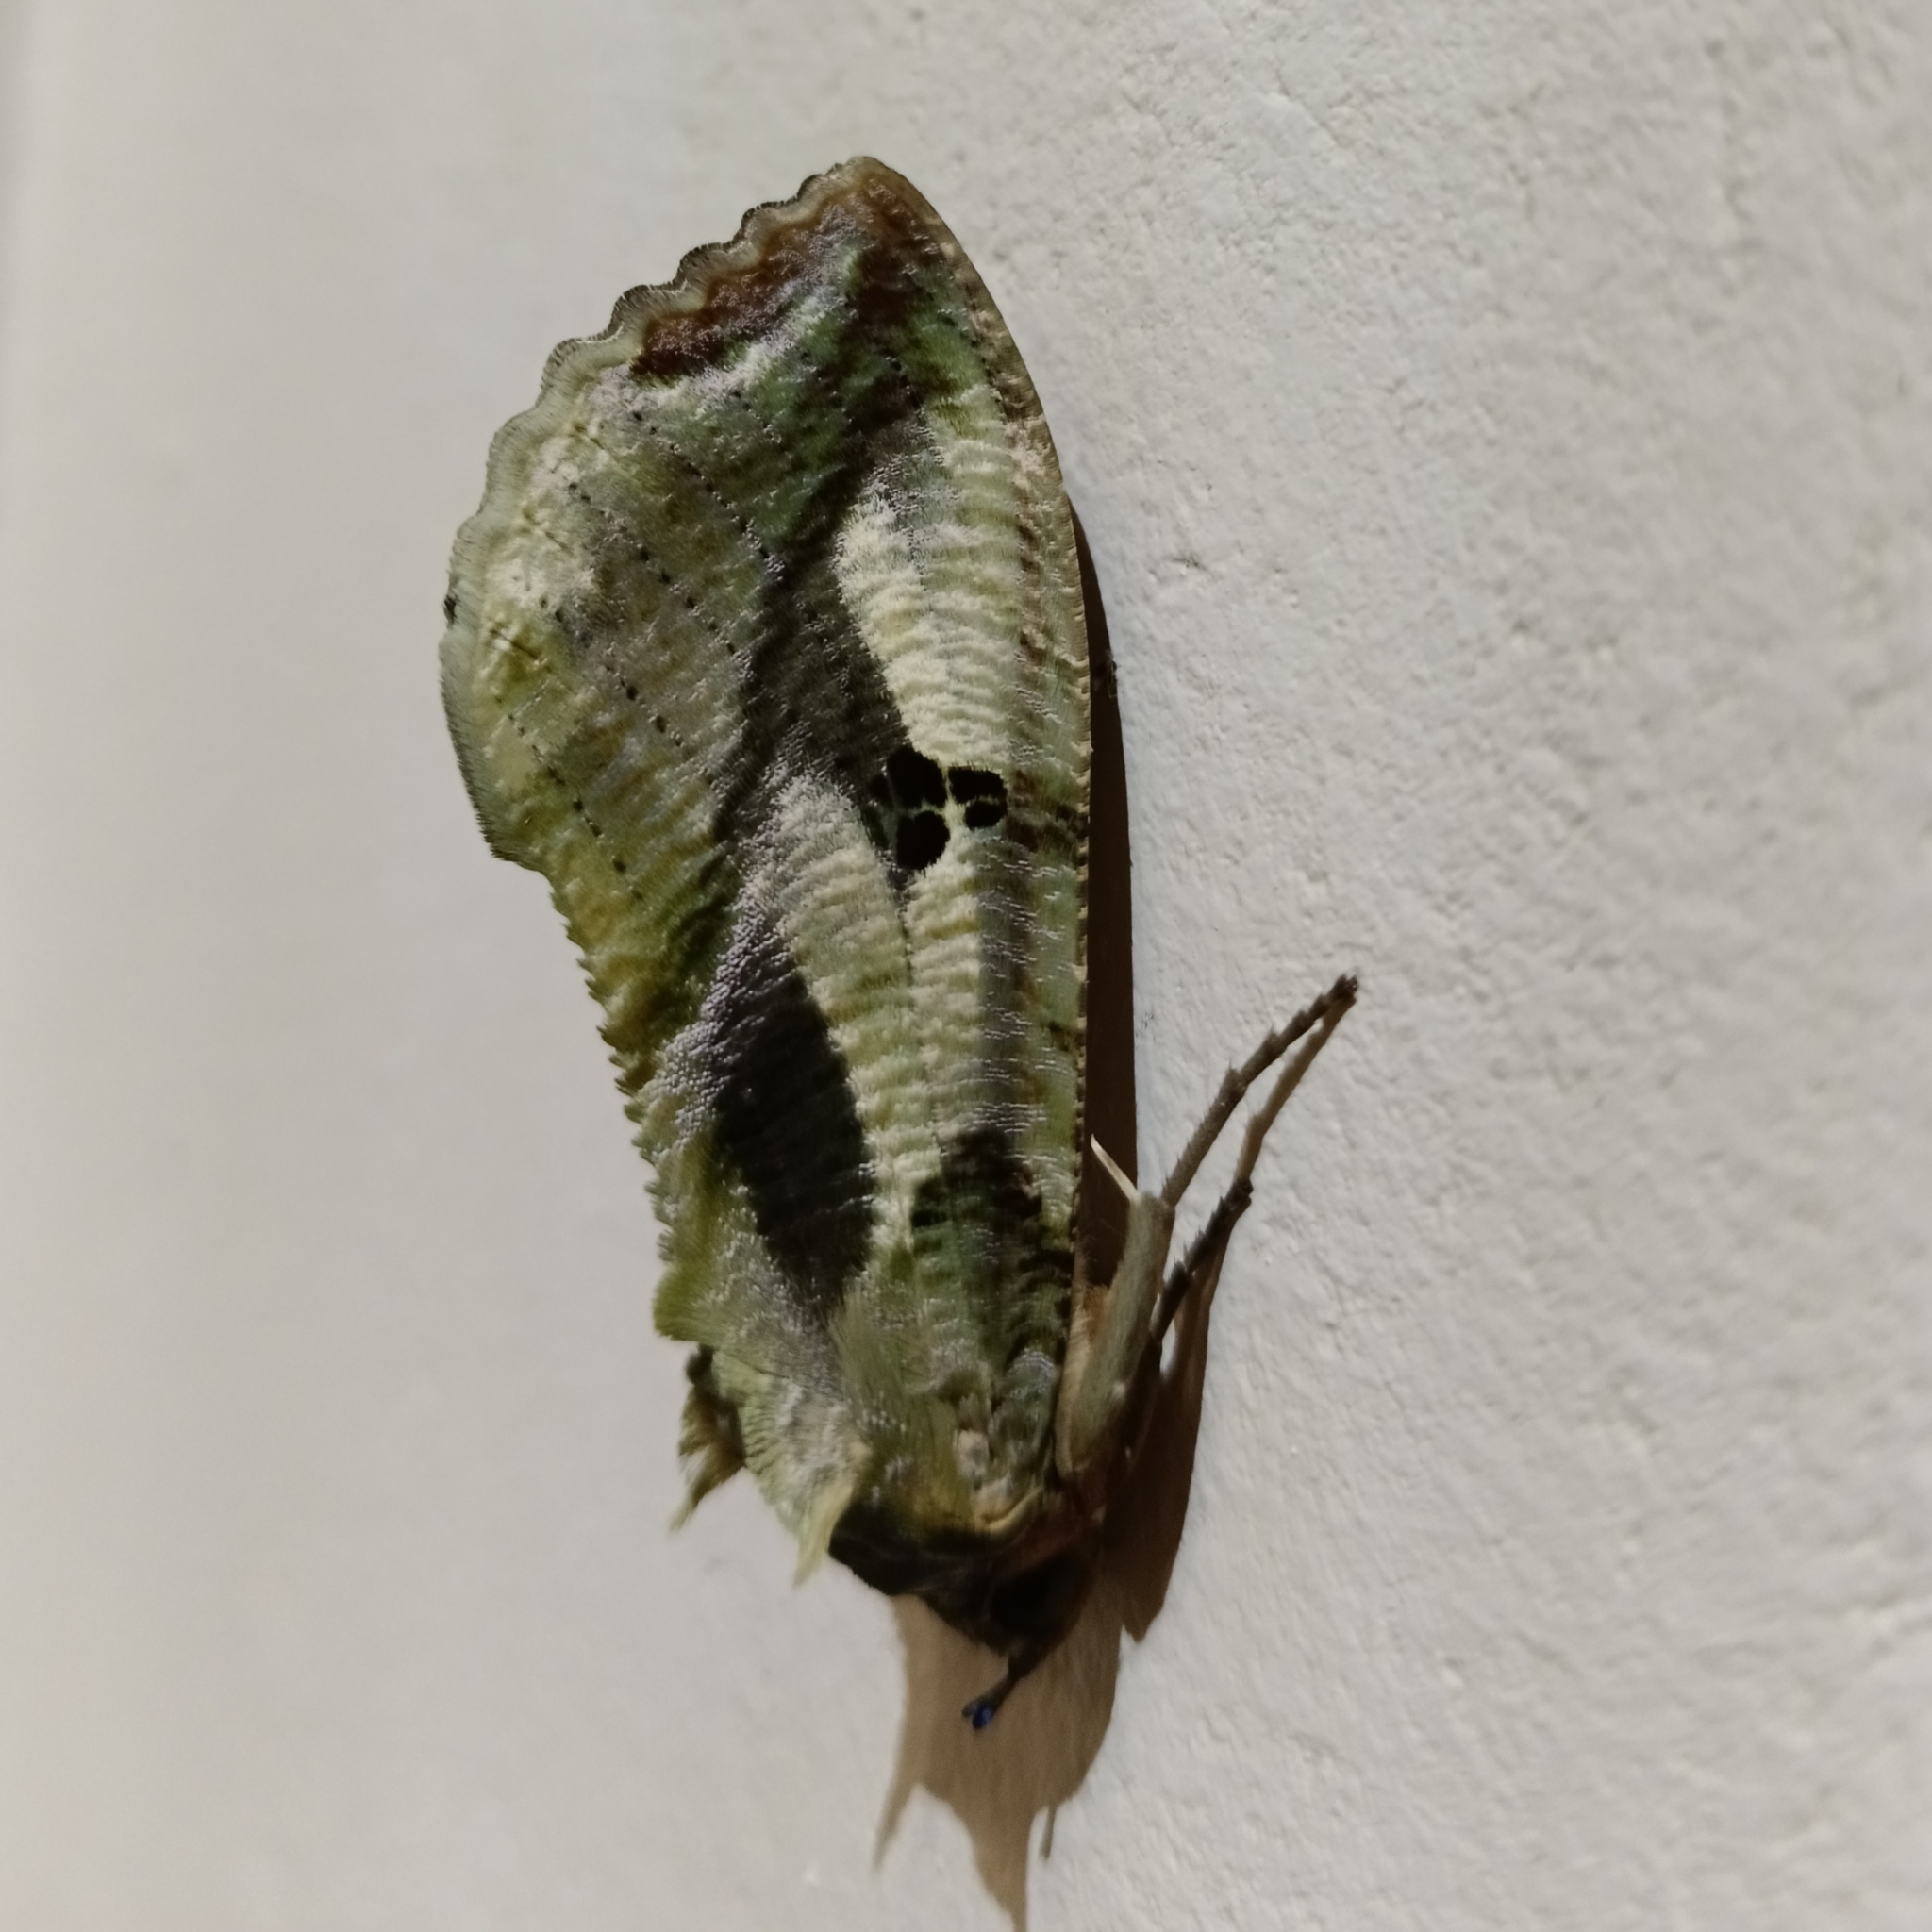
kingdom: Animalia
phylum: Arthropoda
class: Insecta
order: Lepidoptera
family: Erebidae
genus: Eudocima
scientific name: Eudocima materna
